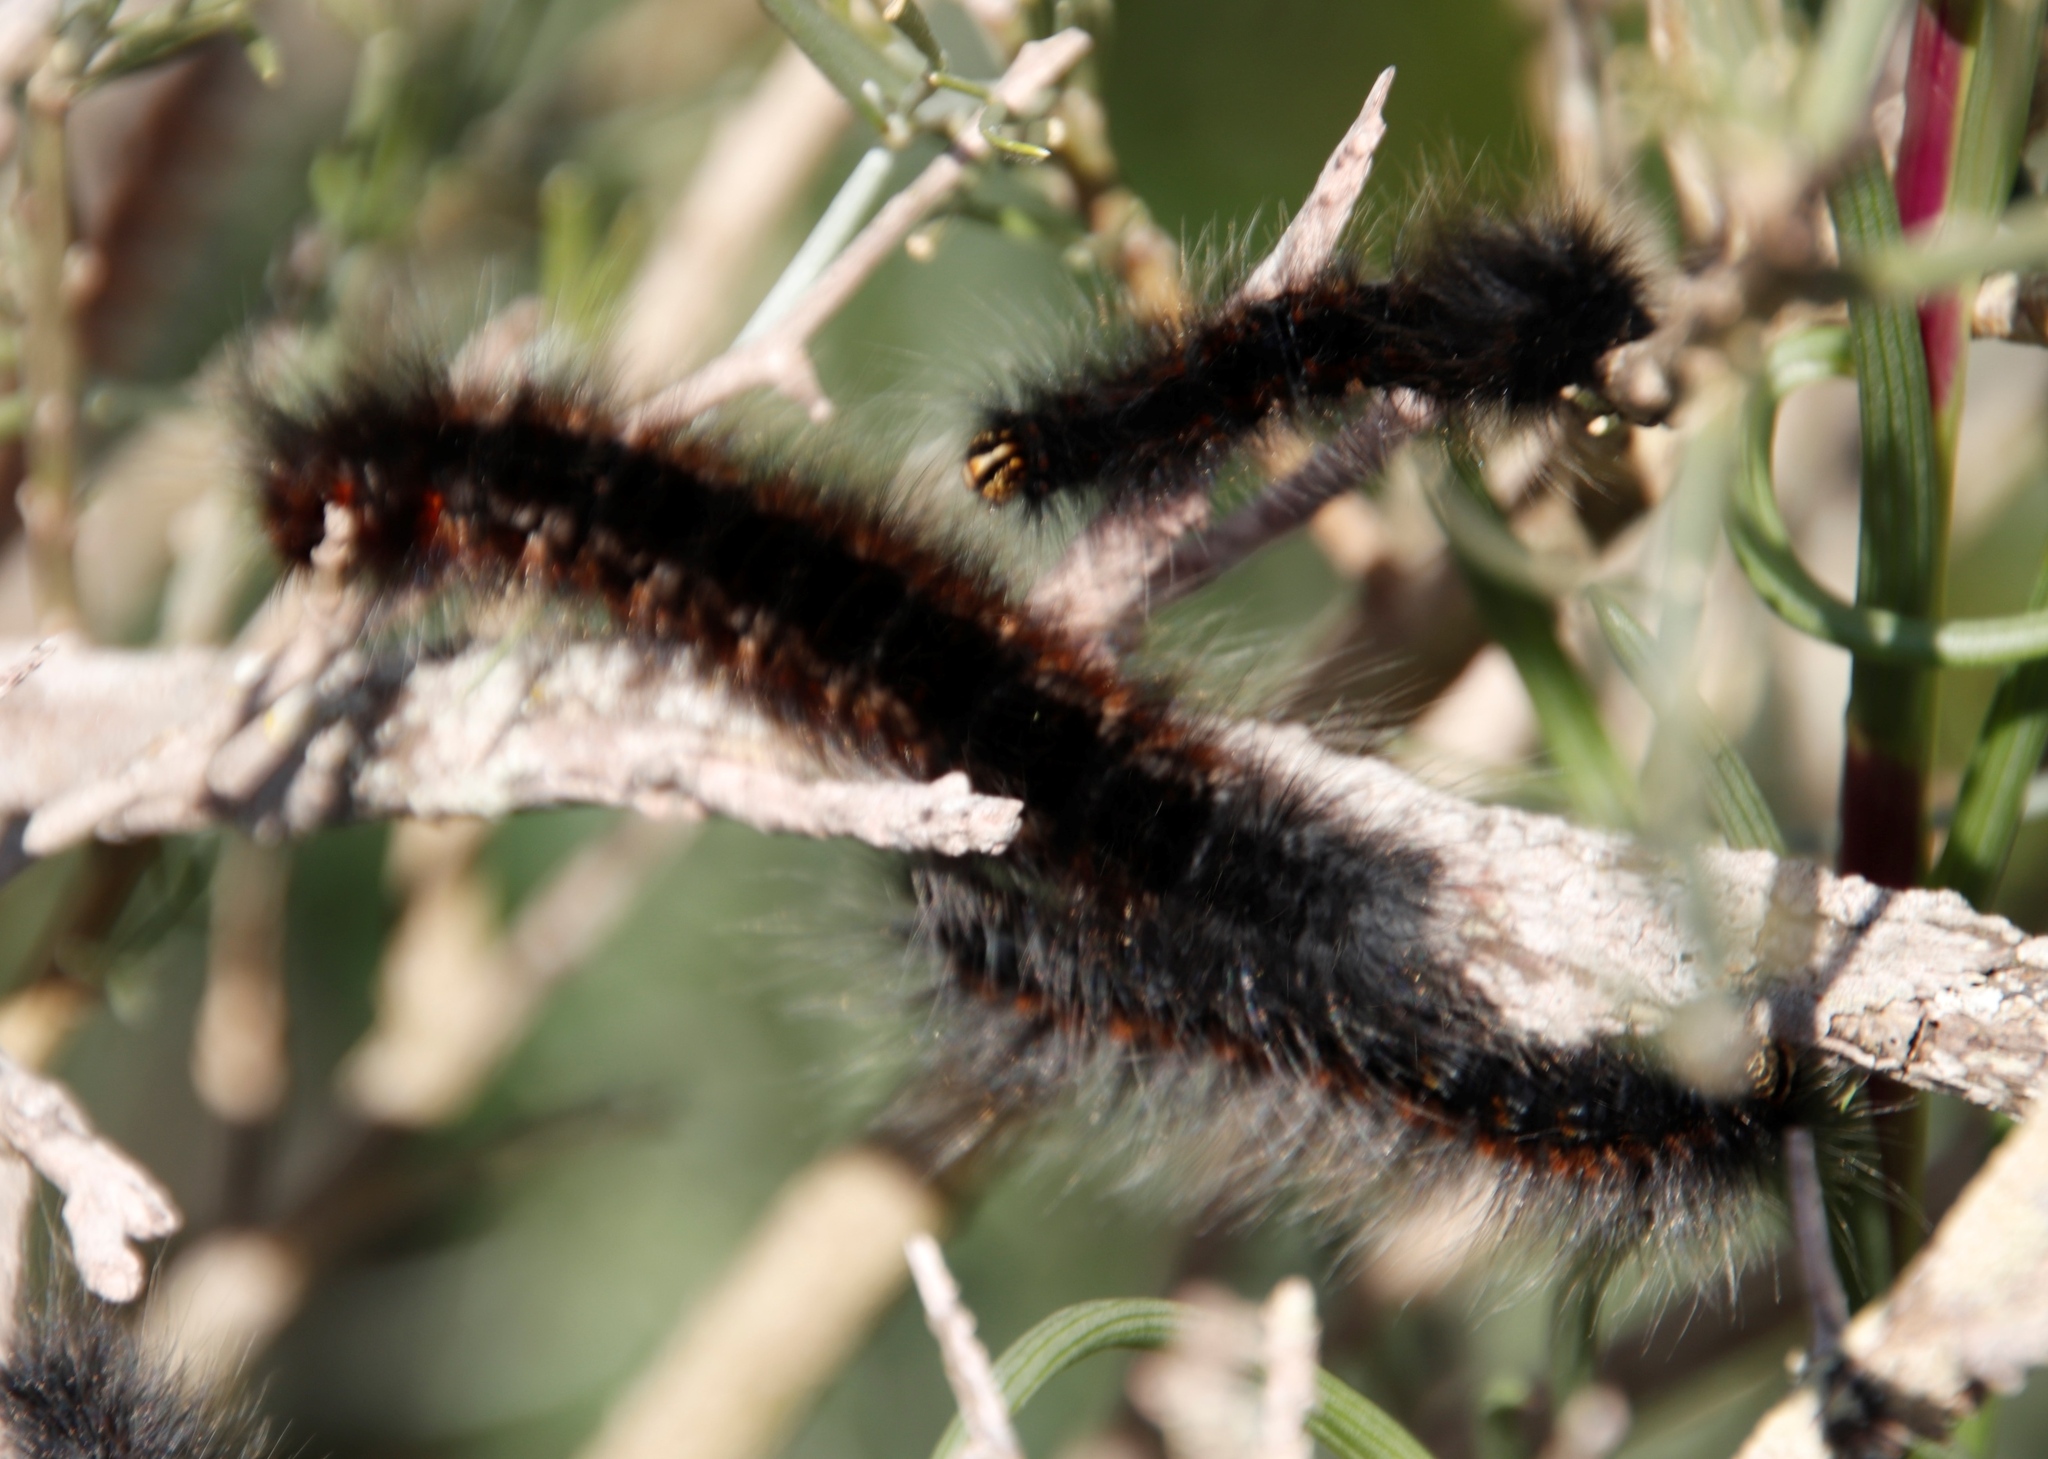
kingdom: Animalia
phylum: Arthropoda
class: Insecta
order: Lepidoptera
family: Lasiocampidae
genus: Mesocelis
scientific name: Mesocelis monticola
